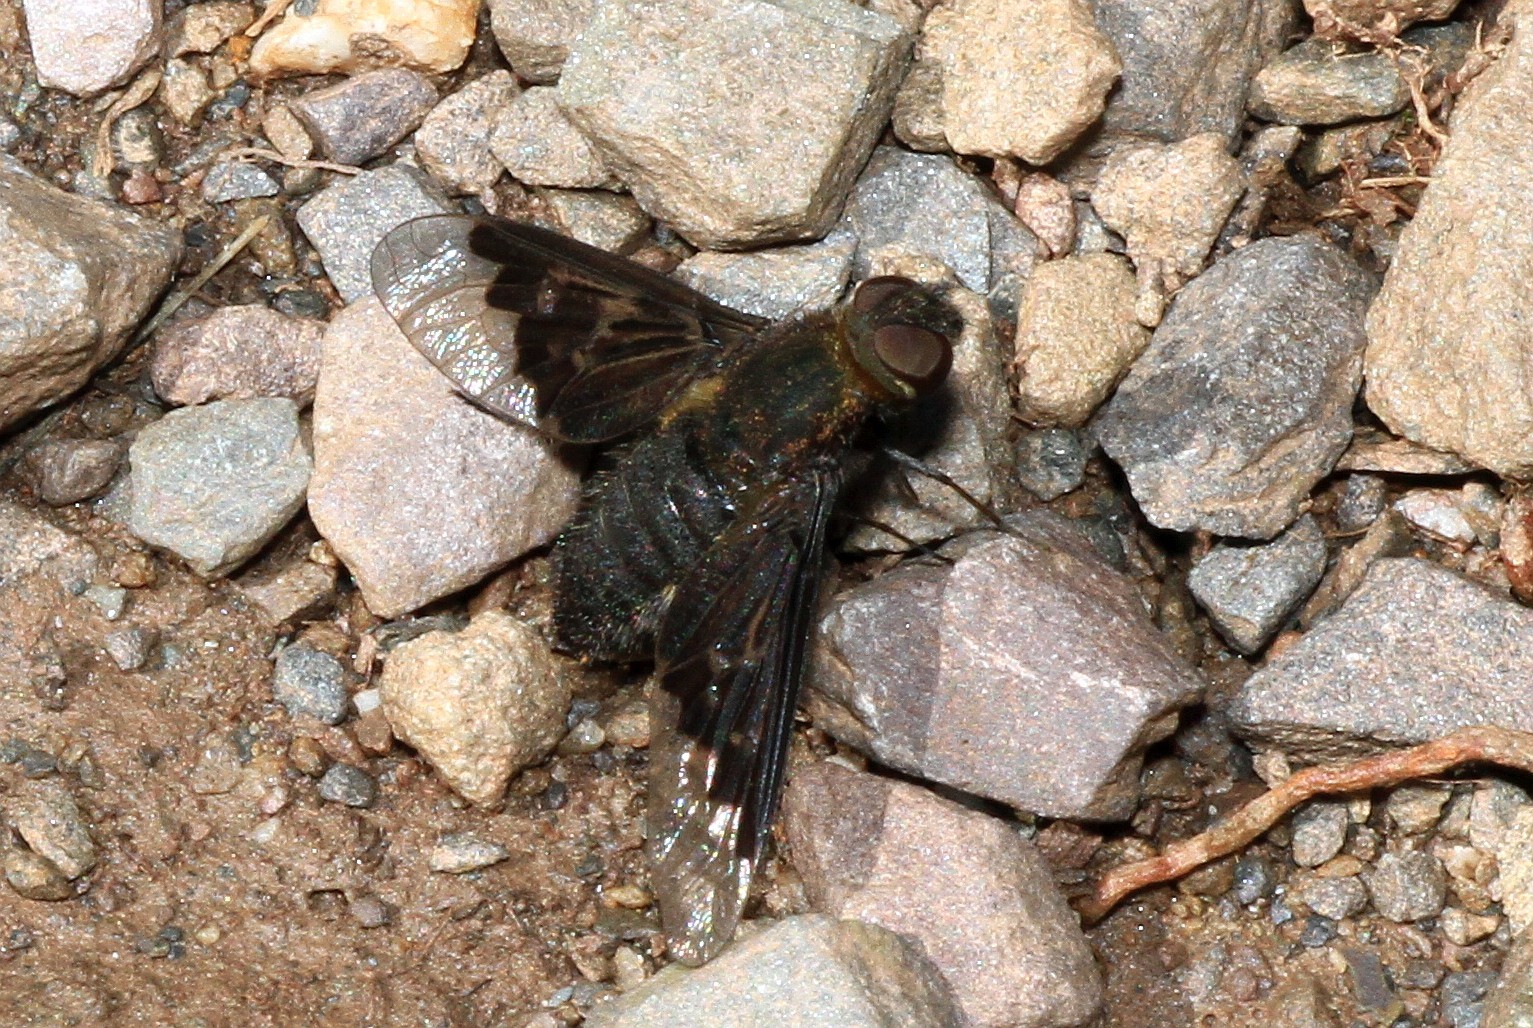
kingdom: Animalia
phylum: Arthropoda
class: Insecta
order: Diptera
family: Bombyliidae
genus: Hemipenthes
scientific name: Hemipenthes morio
